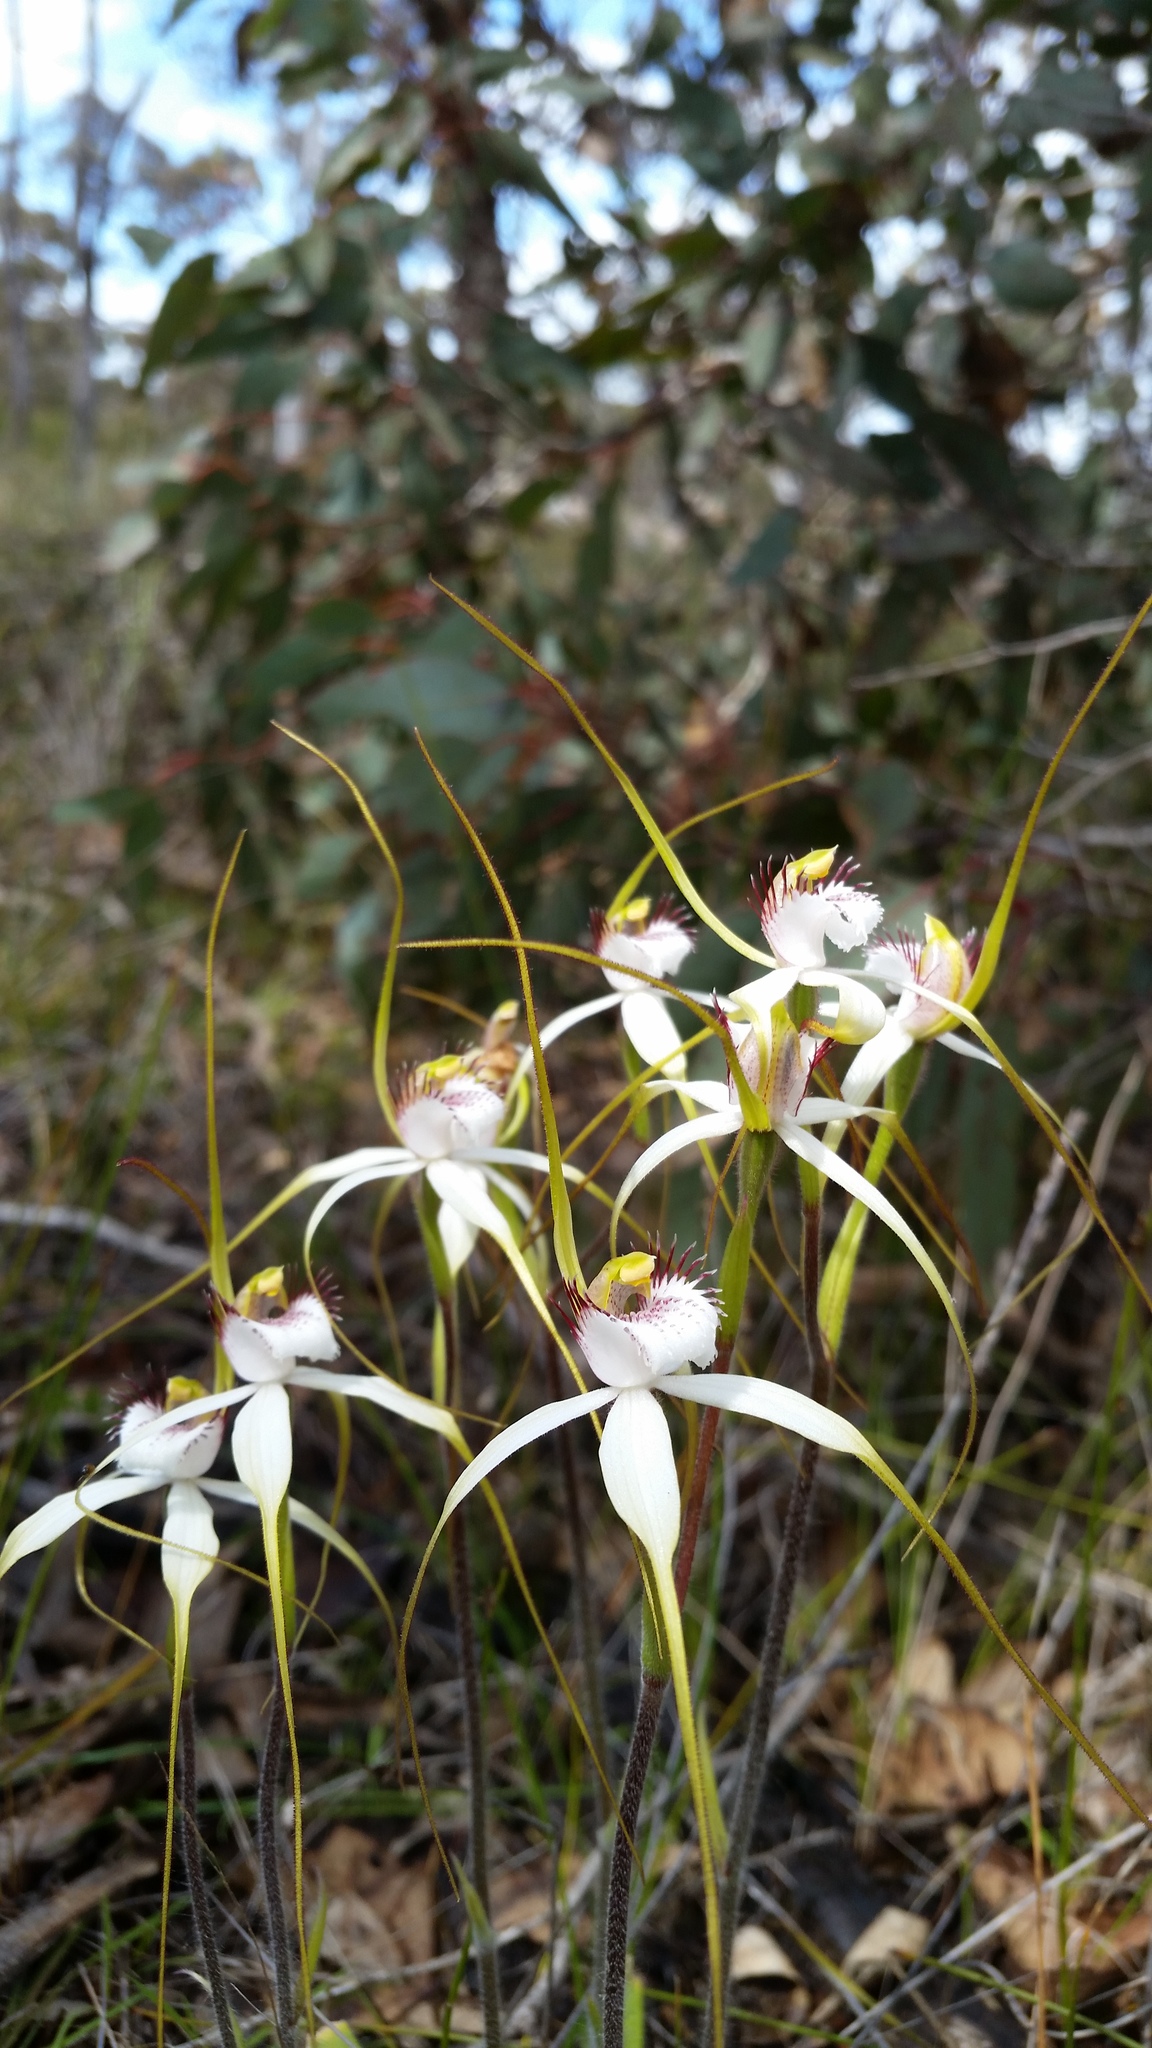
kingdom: Plantae
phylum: Tracheophyta
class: Liliopsida
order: Asparagales
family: Orchidaceae
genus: Caladenia
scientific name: Caladenia longicauda
